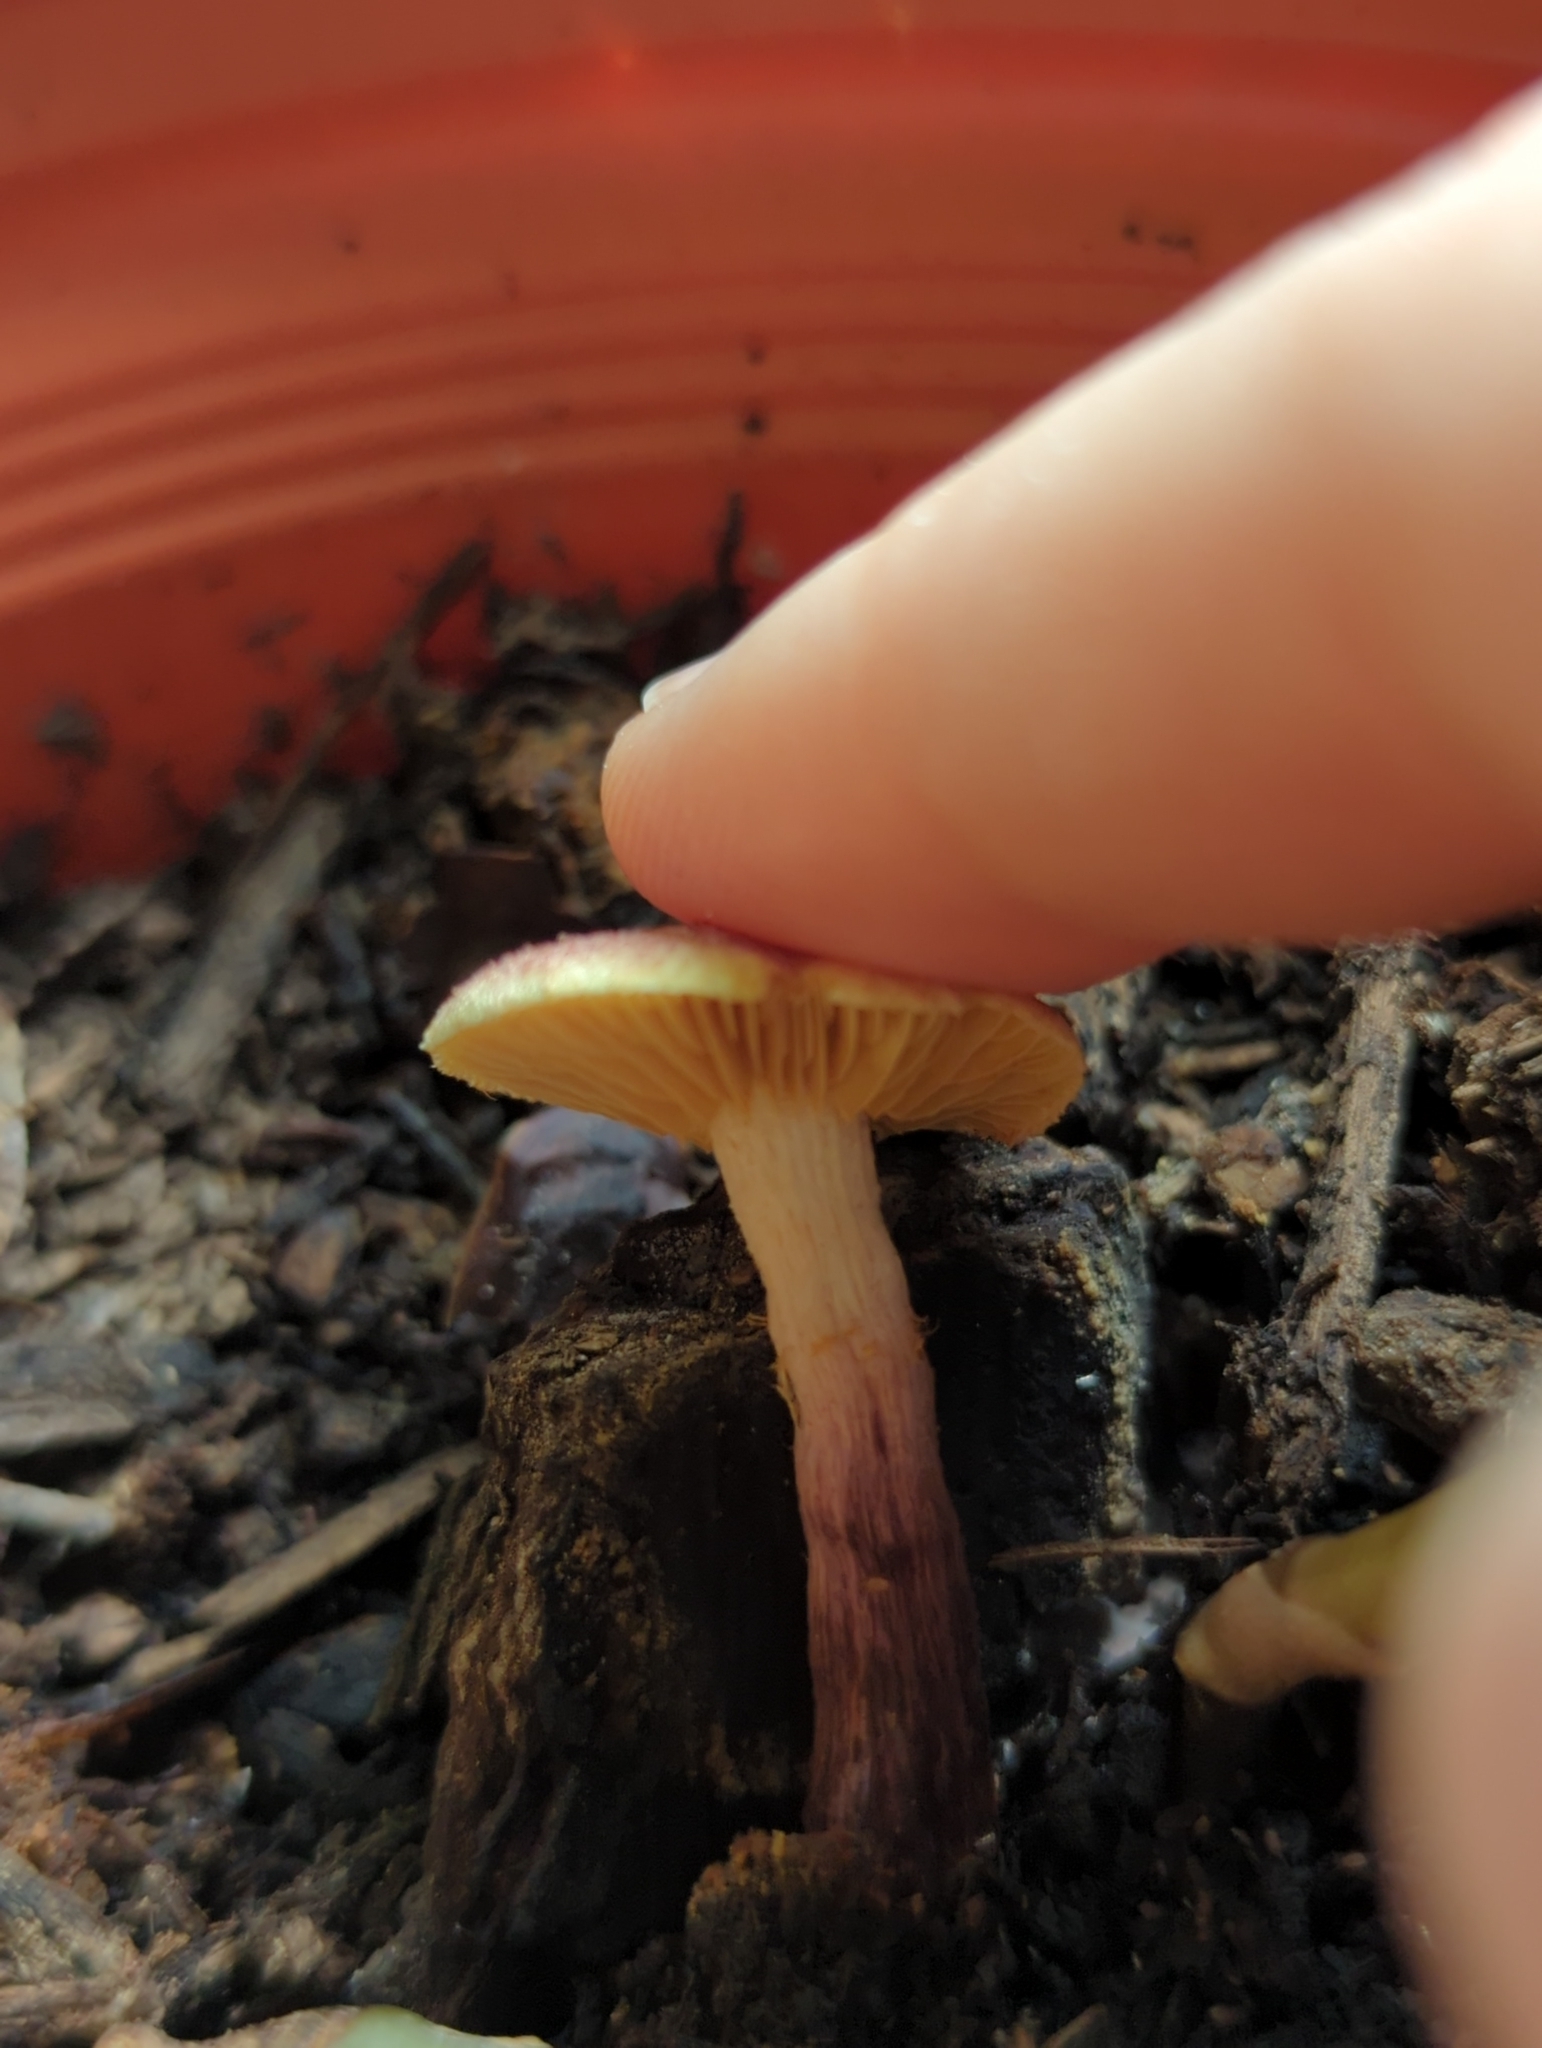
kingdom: Fungi
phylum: Basidiomycota
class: Agaricomycetes
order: Agaricales
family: Hymenogastraceae
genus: Gymnopilus
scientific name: Gymnopilus luteofolius
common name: Yellow-gilled gymnopilus
